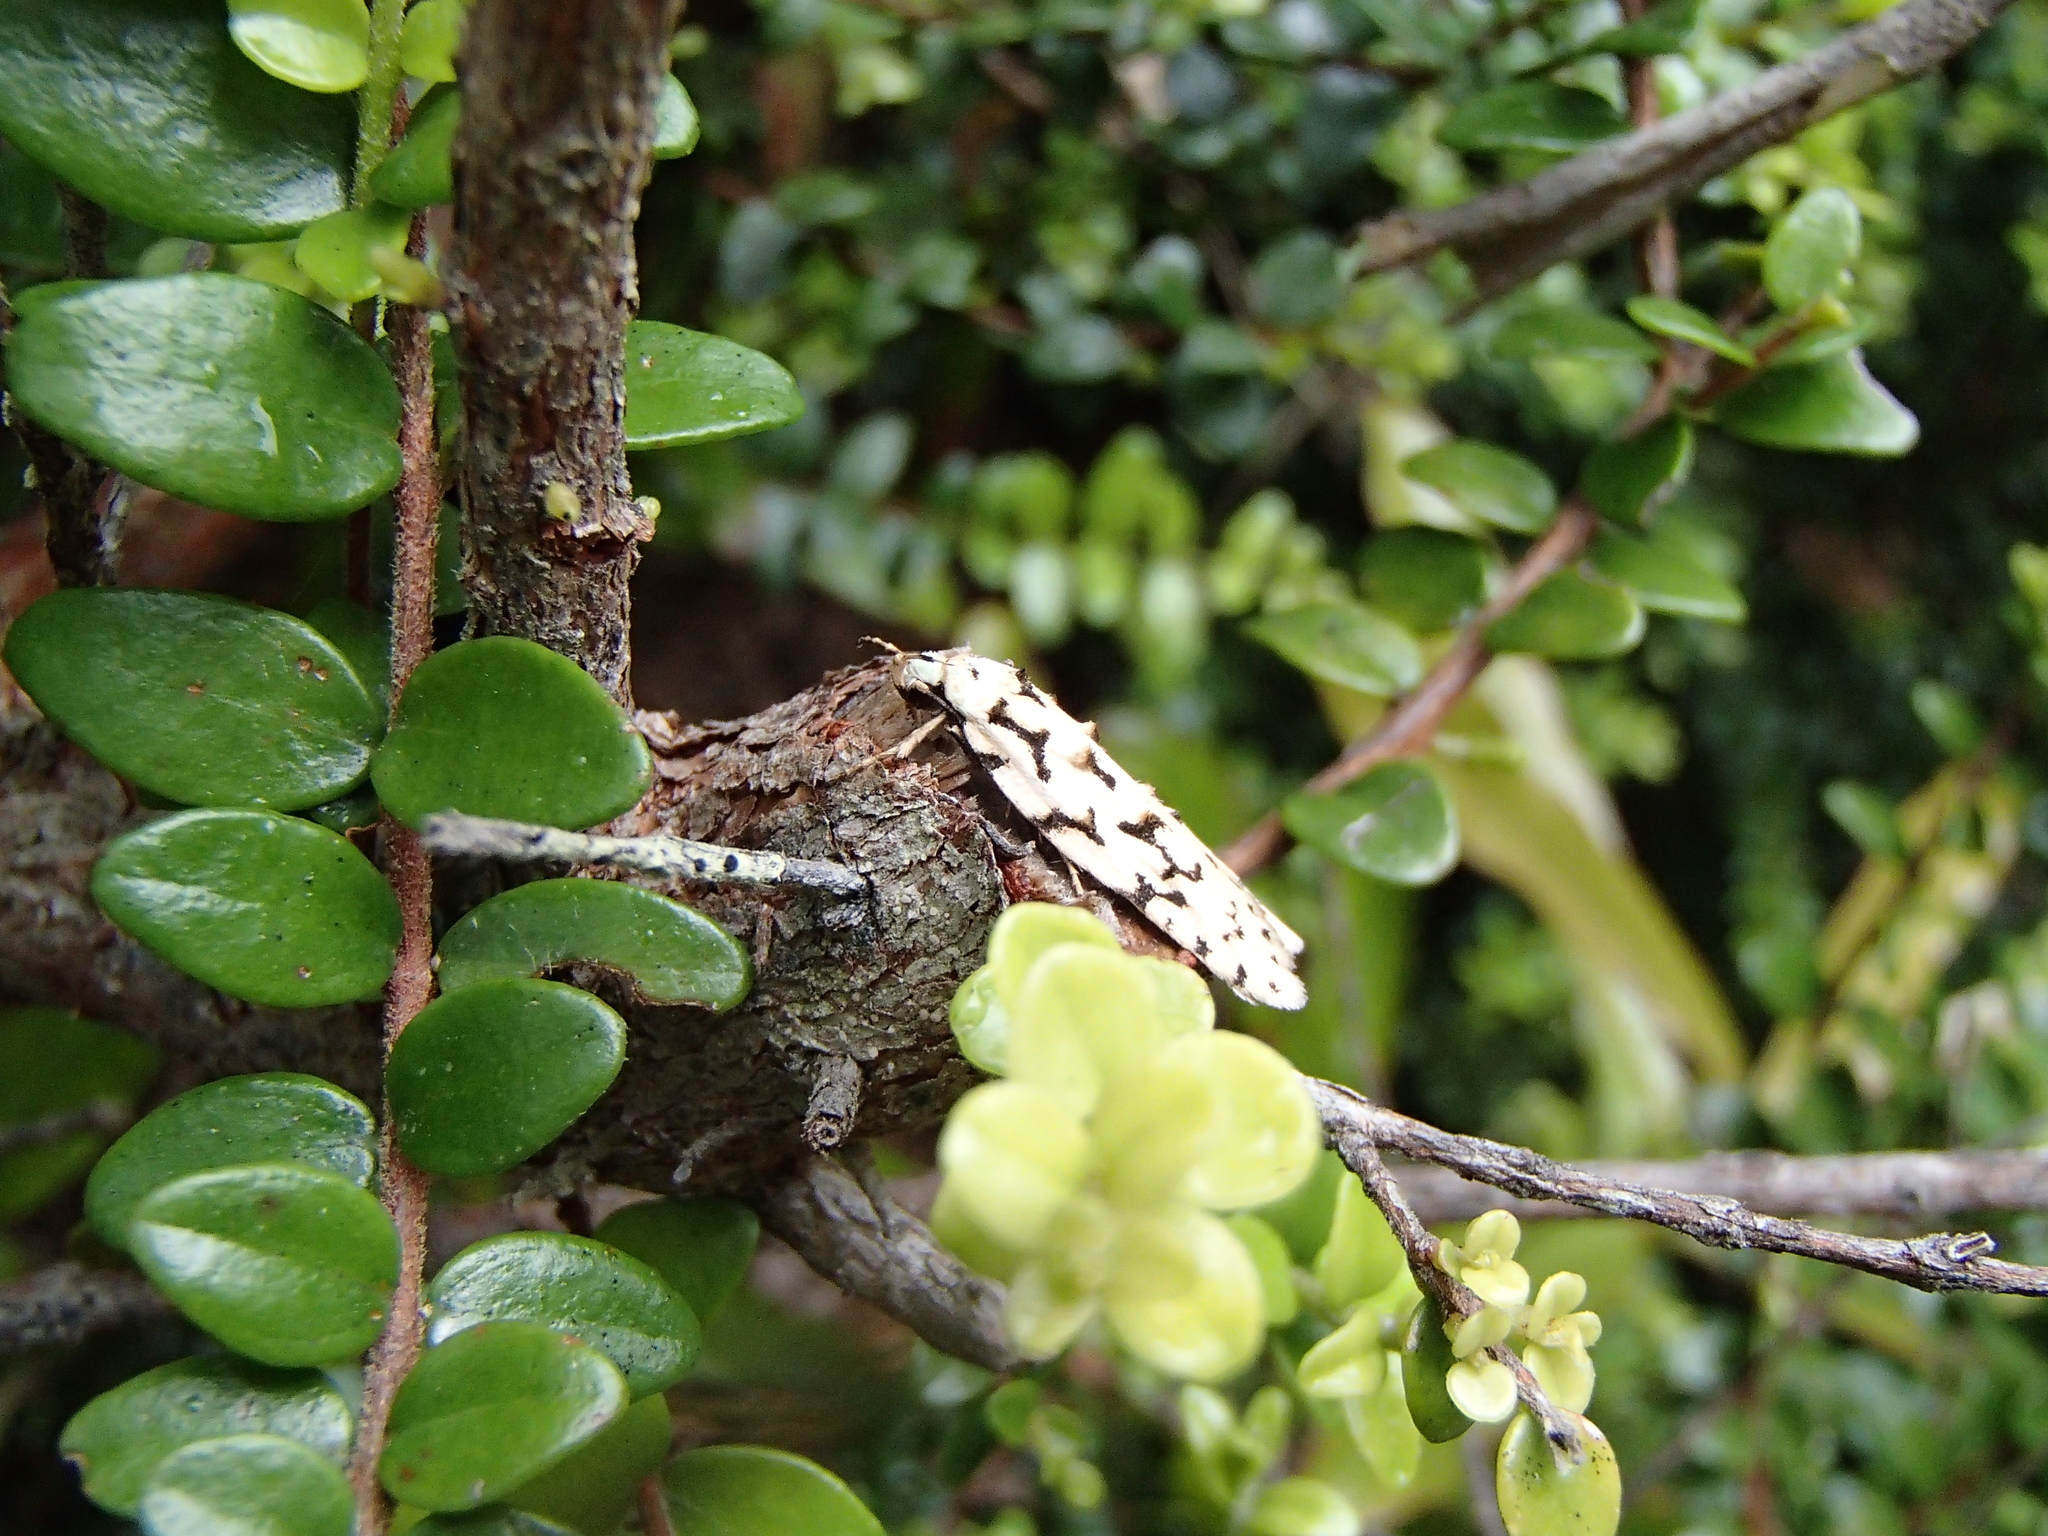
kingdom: Animalia
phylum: Arthropoda
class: Insecta
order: Lepidoptera
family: Oecophoridae
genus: Izatha
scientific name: Izatha huttoni
